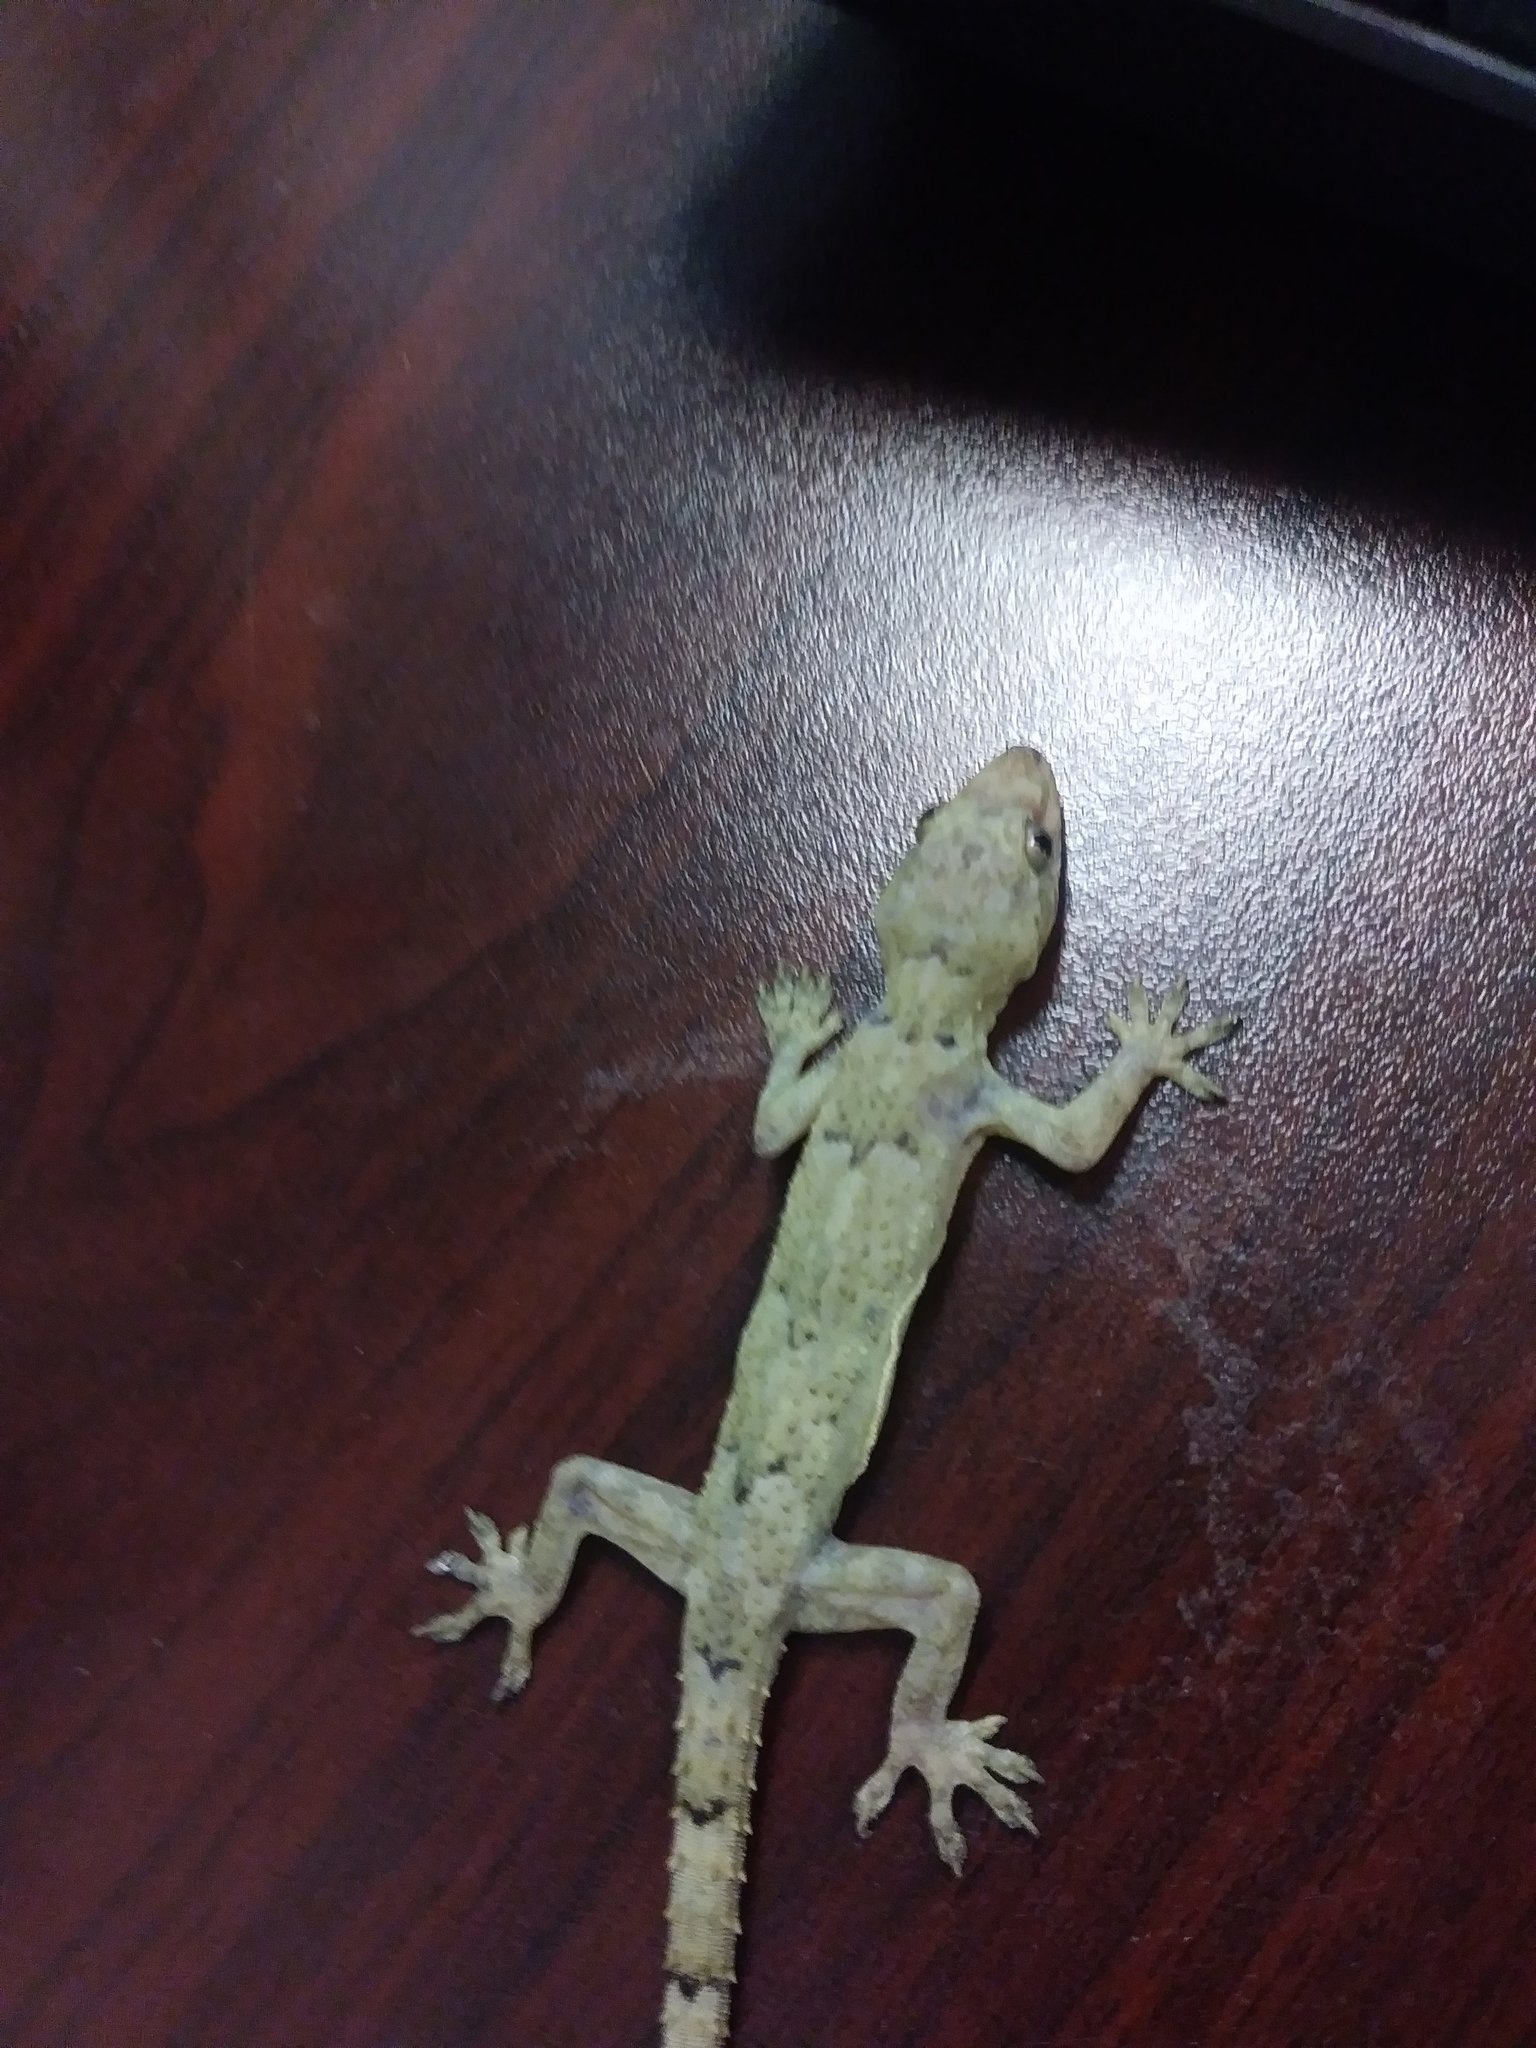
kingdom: Animalia
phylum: Chordata
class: Squamata
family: Gekkonidae
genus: Hemidactylus
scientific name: Hemidactylus mabouia
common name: House gecko
